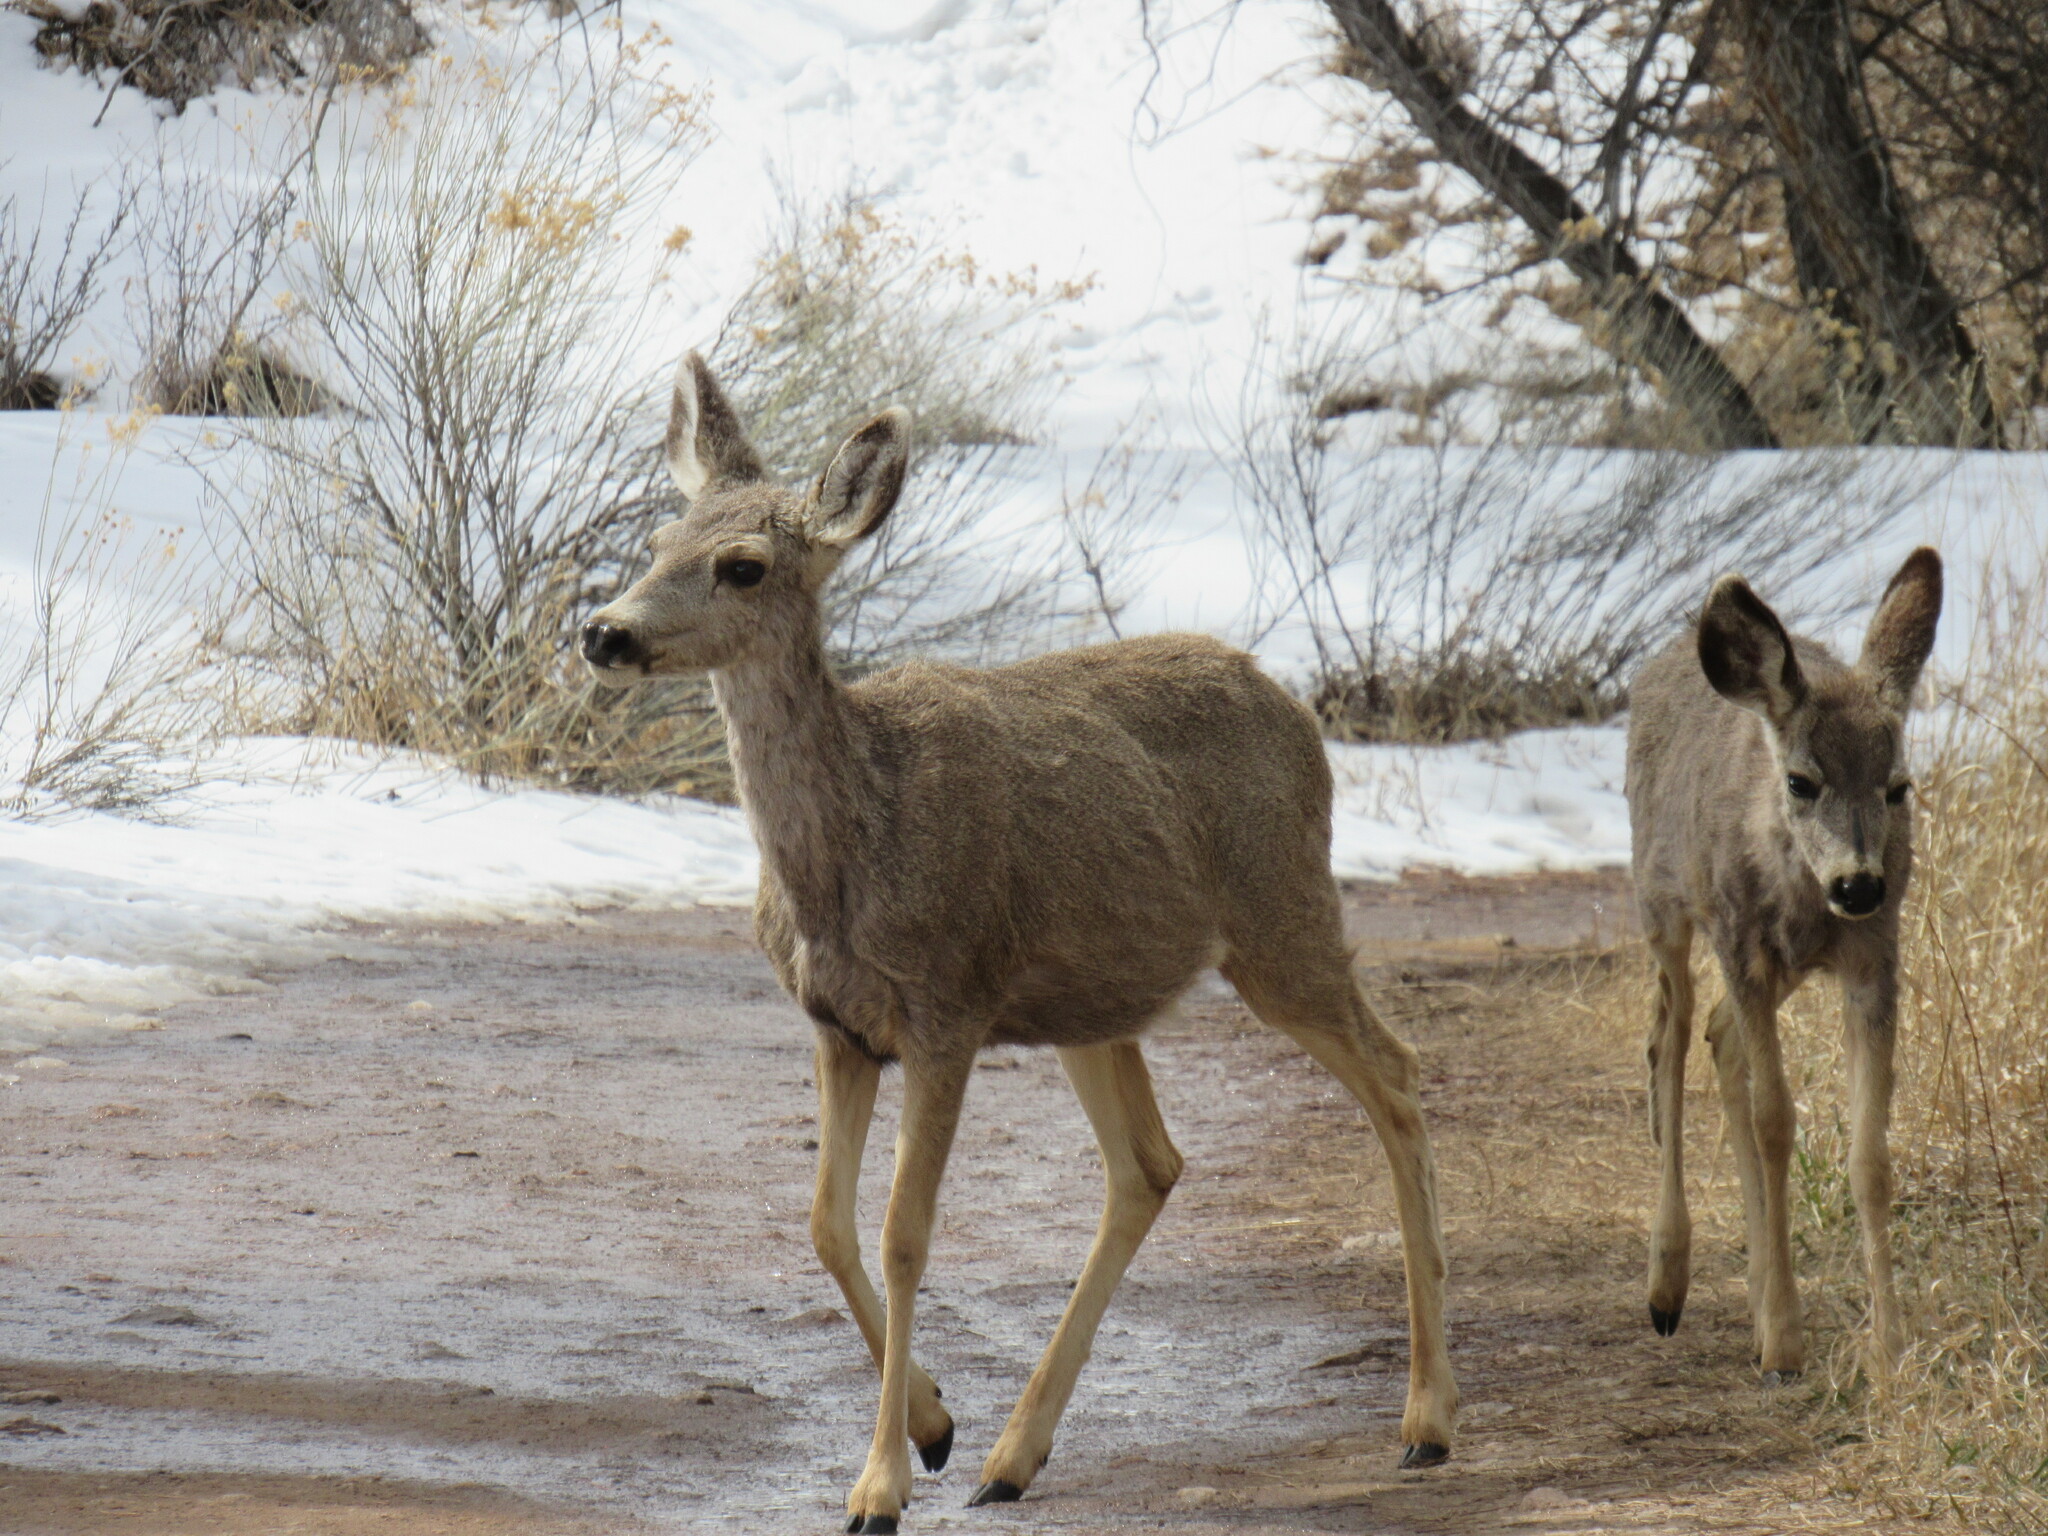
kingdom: Animalia
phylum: Chordata
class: Mammalia
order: Artiodactyla
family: Cervidae
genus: Odocoileus
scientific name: Odocoileus hemionus
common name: Mule deer
